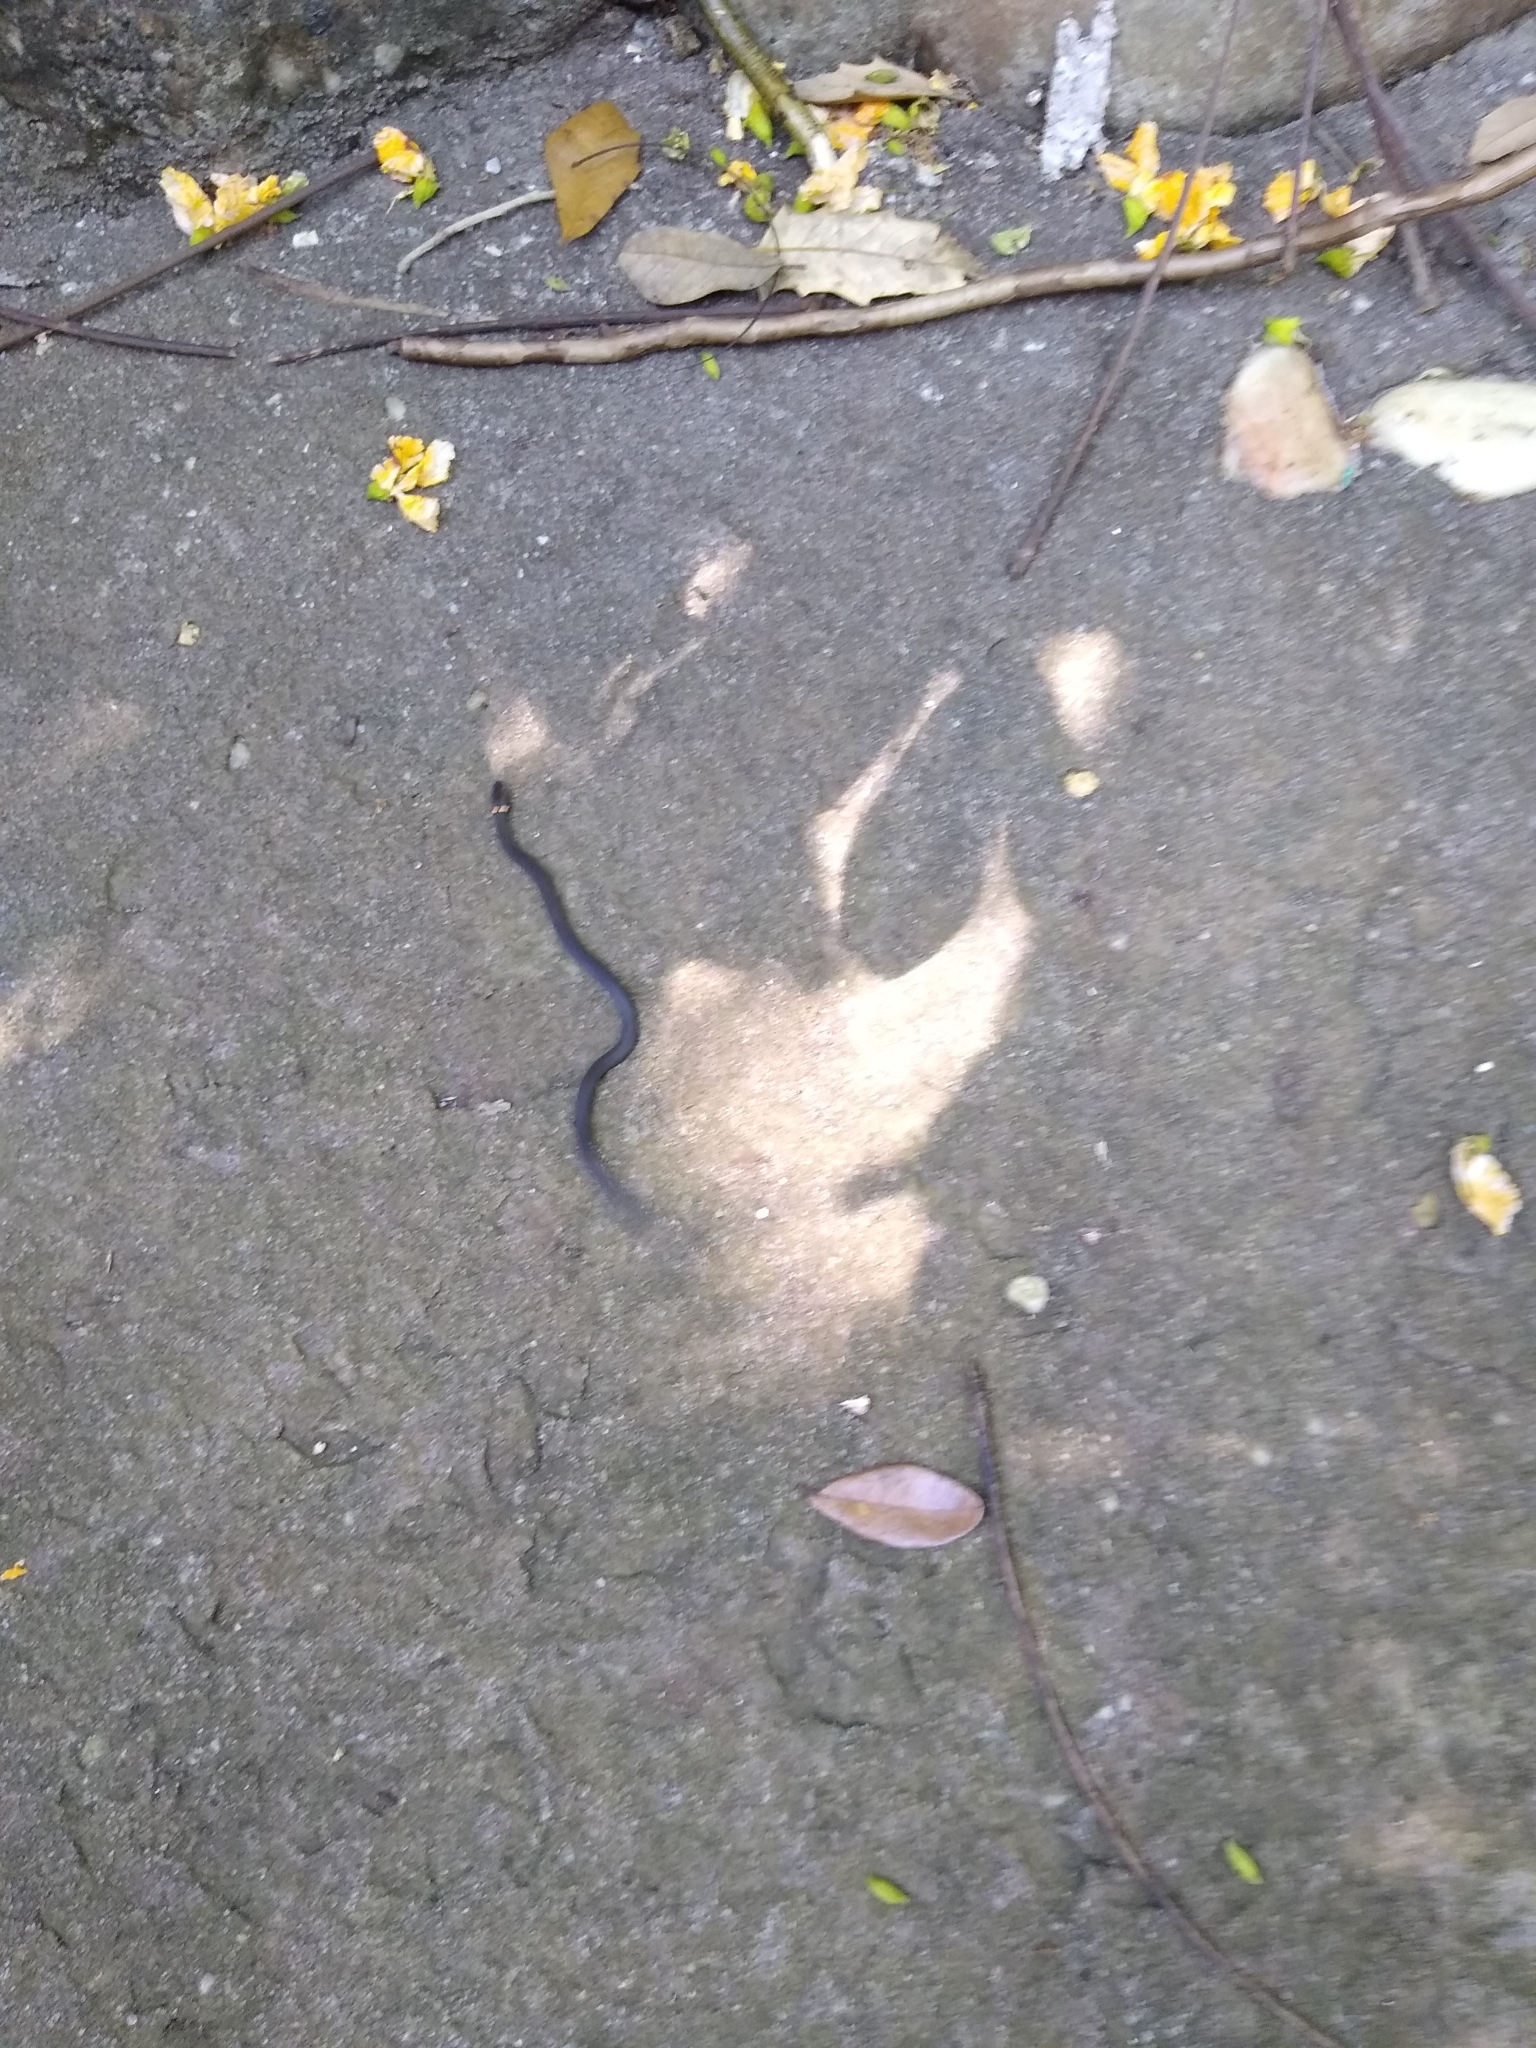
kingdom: Animalia
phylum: Chordata
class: Squamata
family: Colubridae
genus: Diadophis
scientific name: Diadophis punctatus
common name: Ringneck snake
